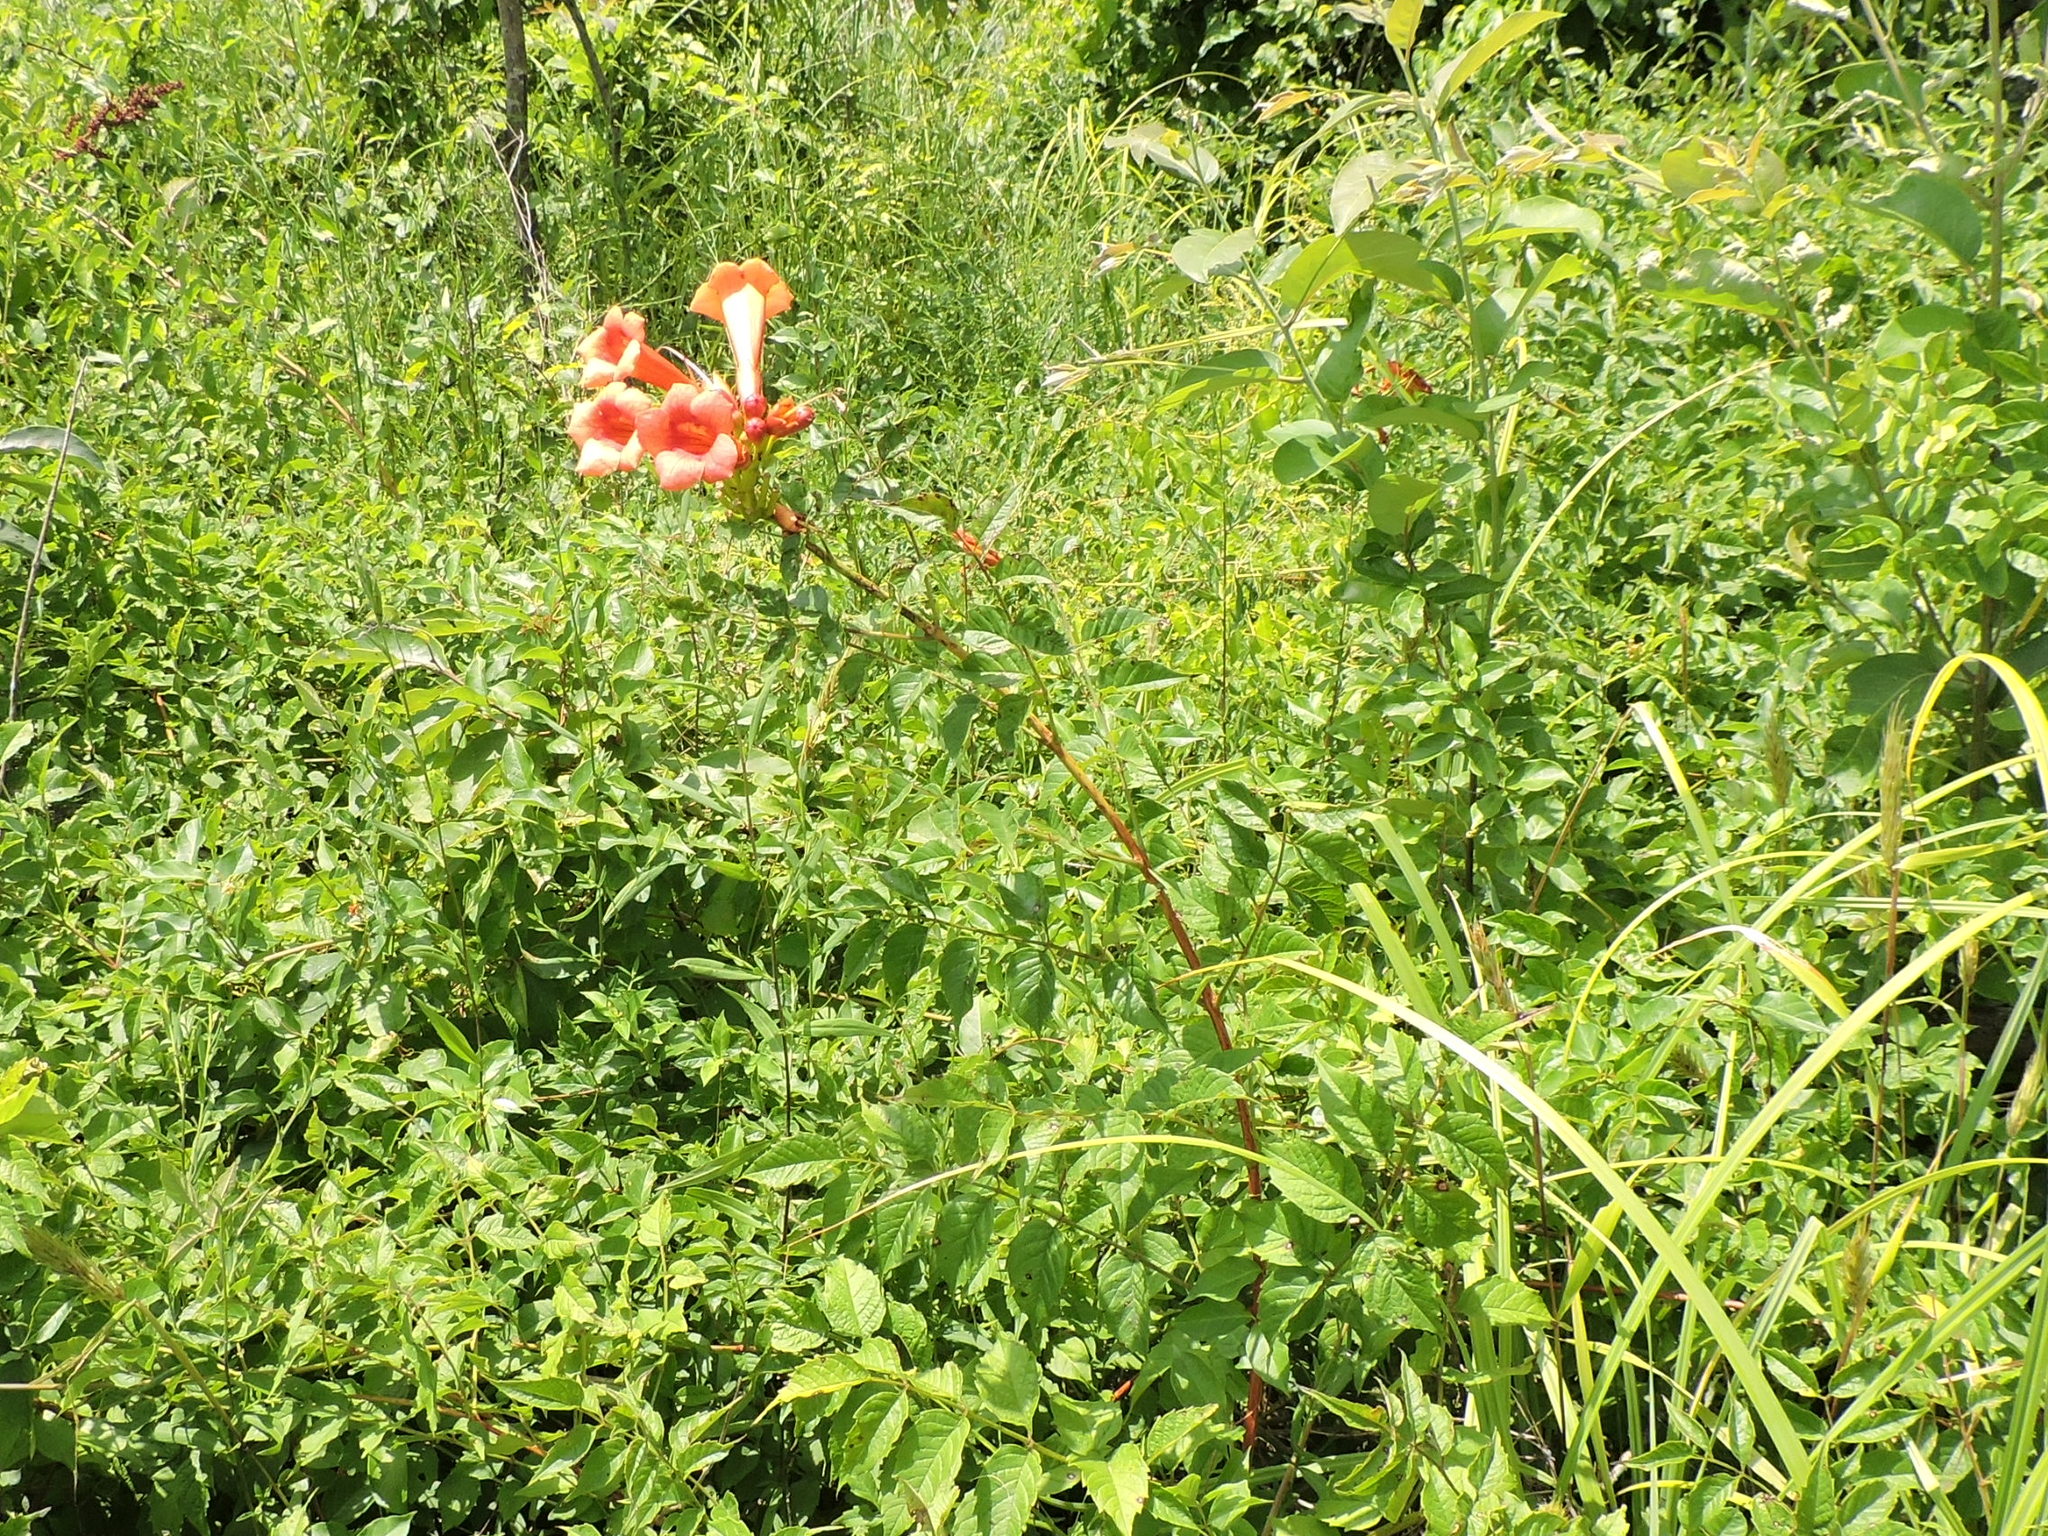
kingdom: Plantae
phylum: Tracheophyta
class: Magnoliopsida
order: Lamiales
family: Bignoniaceae
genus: Campsis
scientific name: Campsis radicans
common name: Trumpet-creeper
